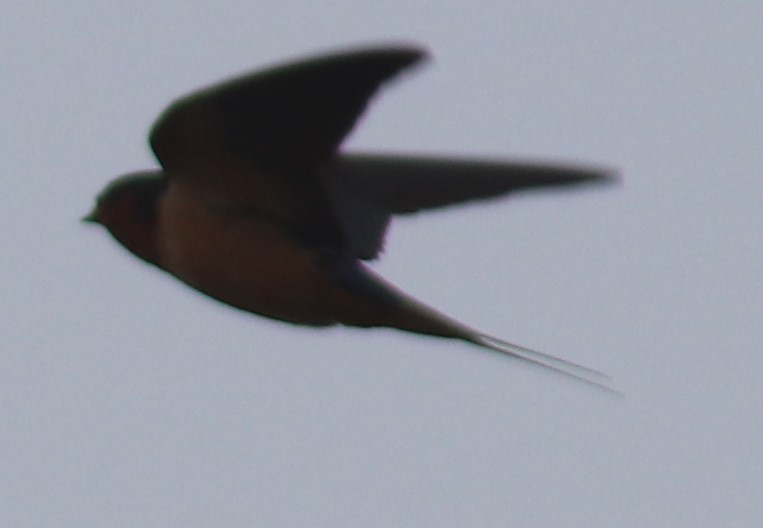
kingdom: Animalia
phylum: Chordata
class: Aves
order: Passeriformes
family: Hirundinidae
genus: Hirundo
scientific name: Hirundo rustica
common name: Barn swallow
